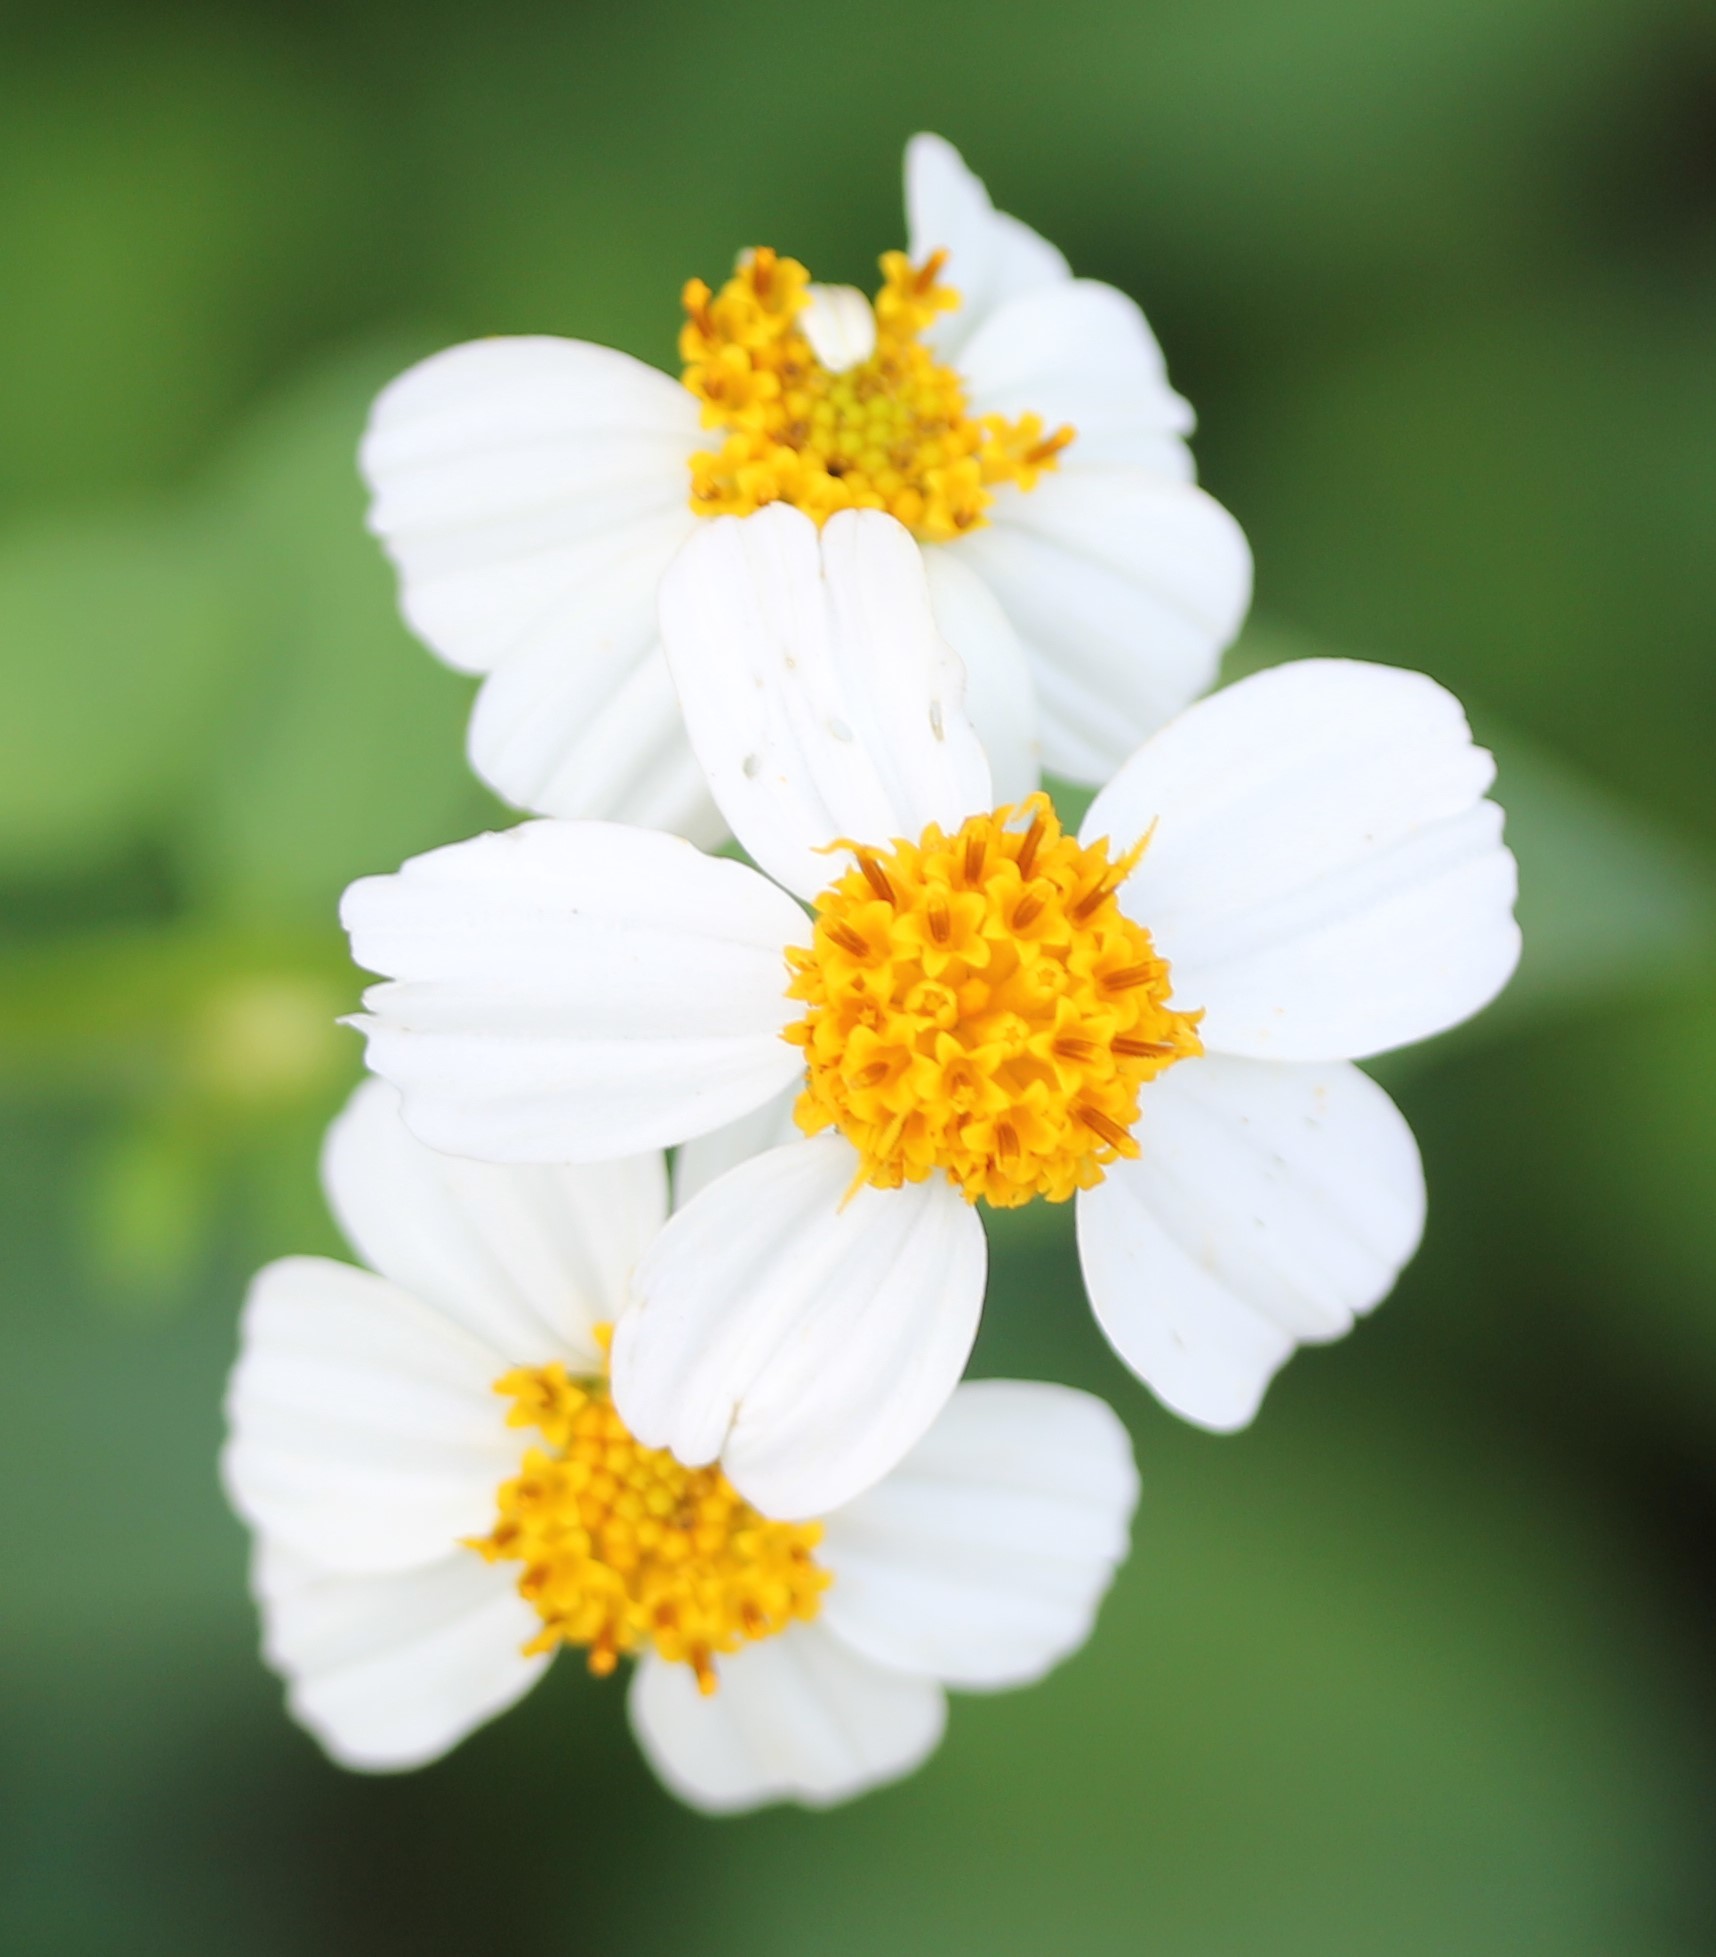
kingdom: Plantae
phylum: Tracheophyta
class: Magnoliopsida
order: Asterales
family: Asteraceae
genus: Bidens
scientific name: Bidens alba
